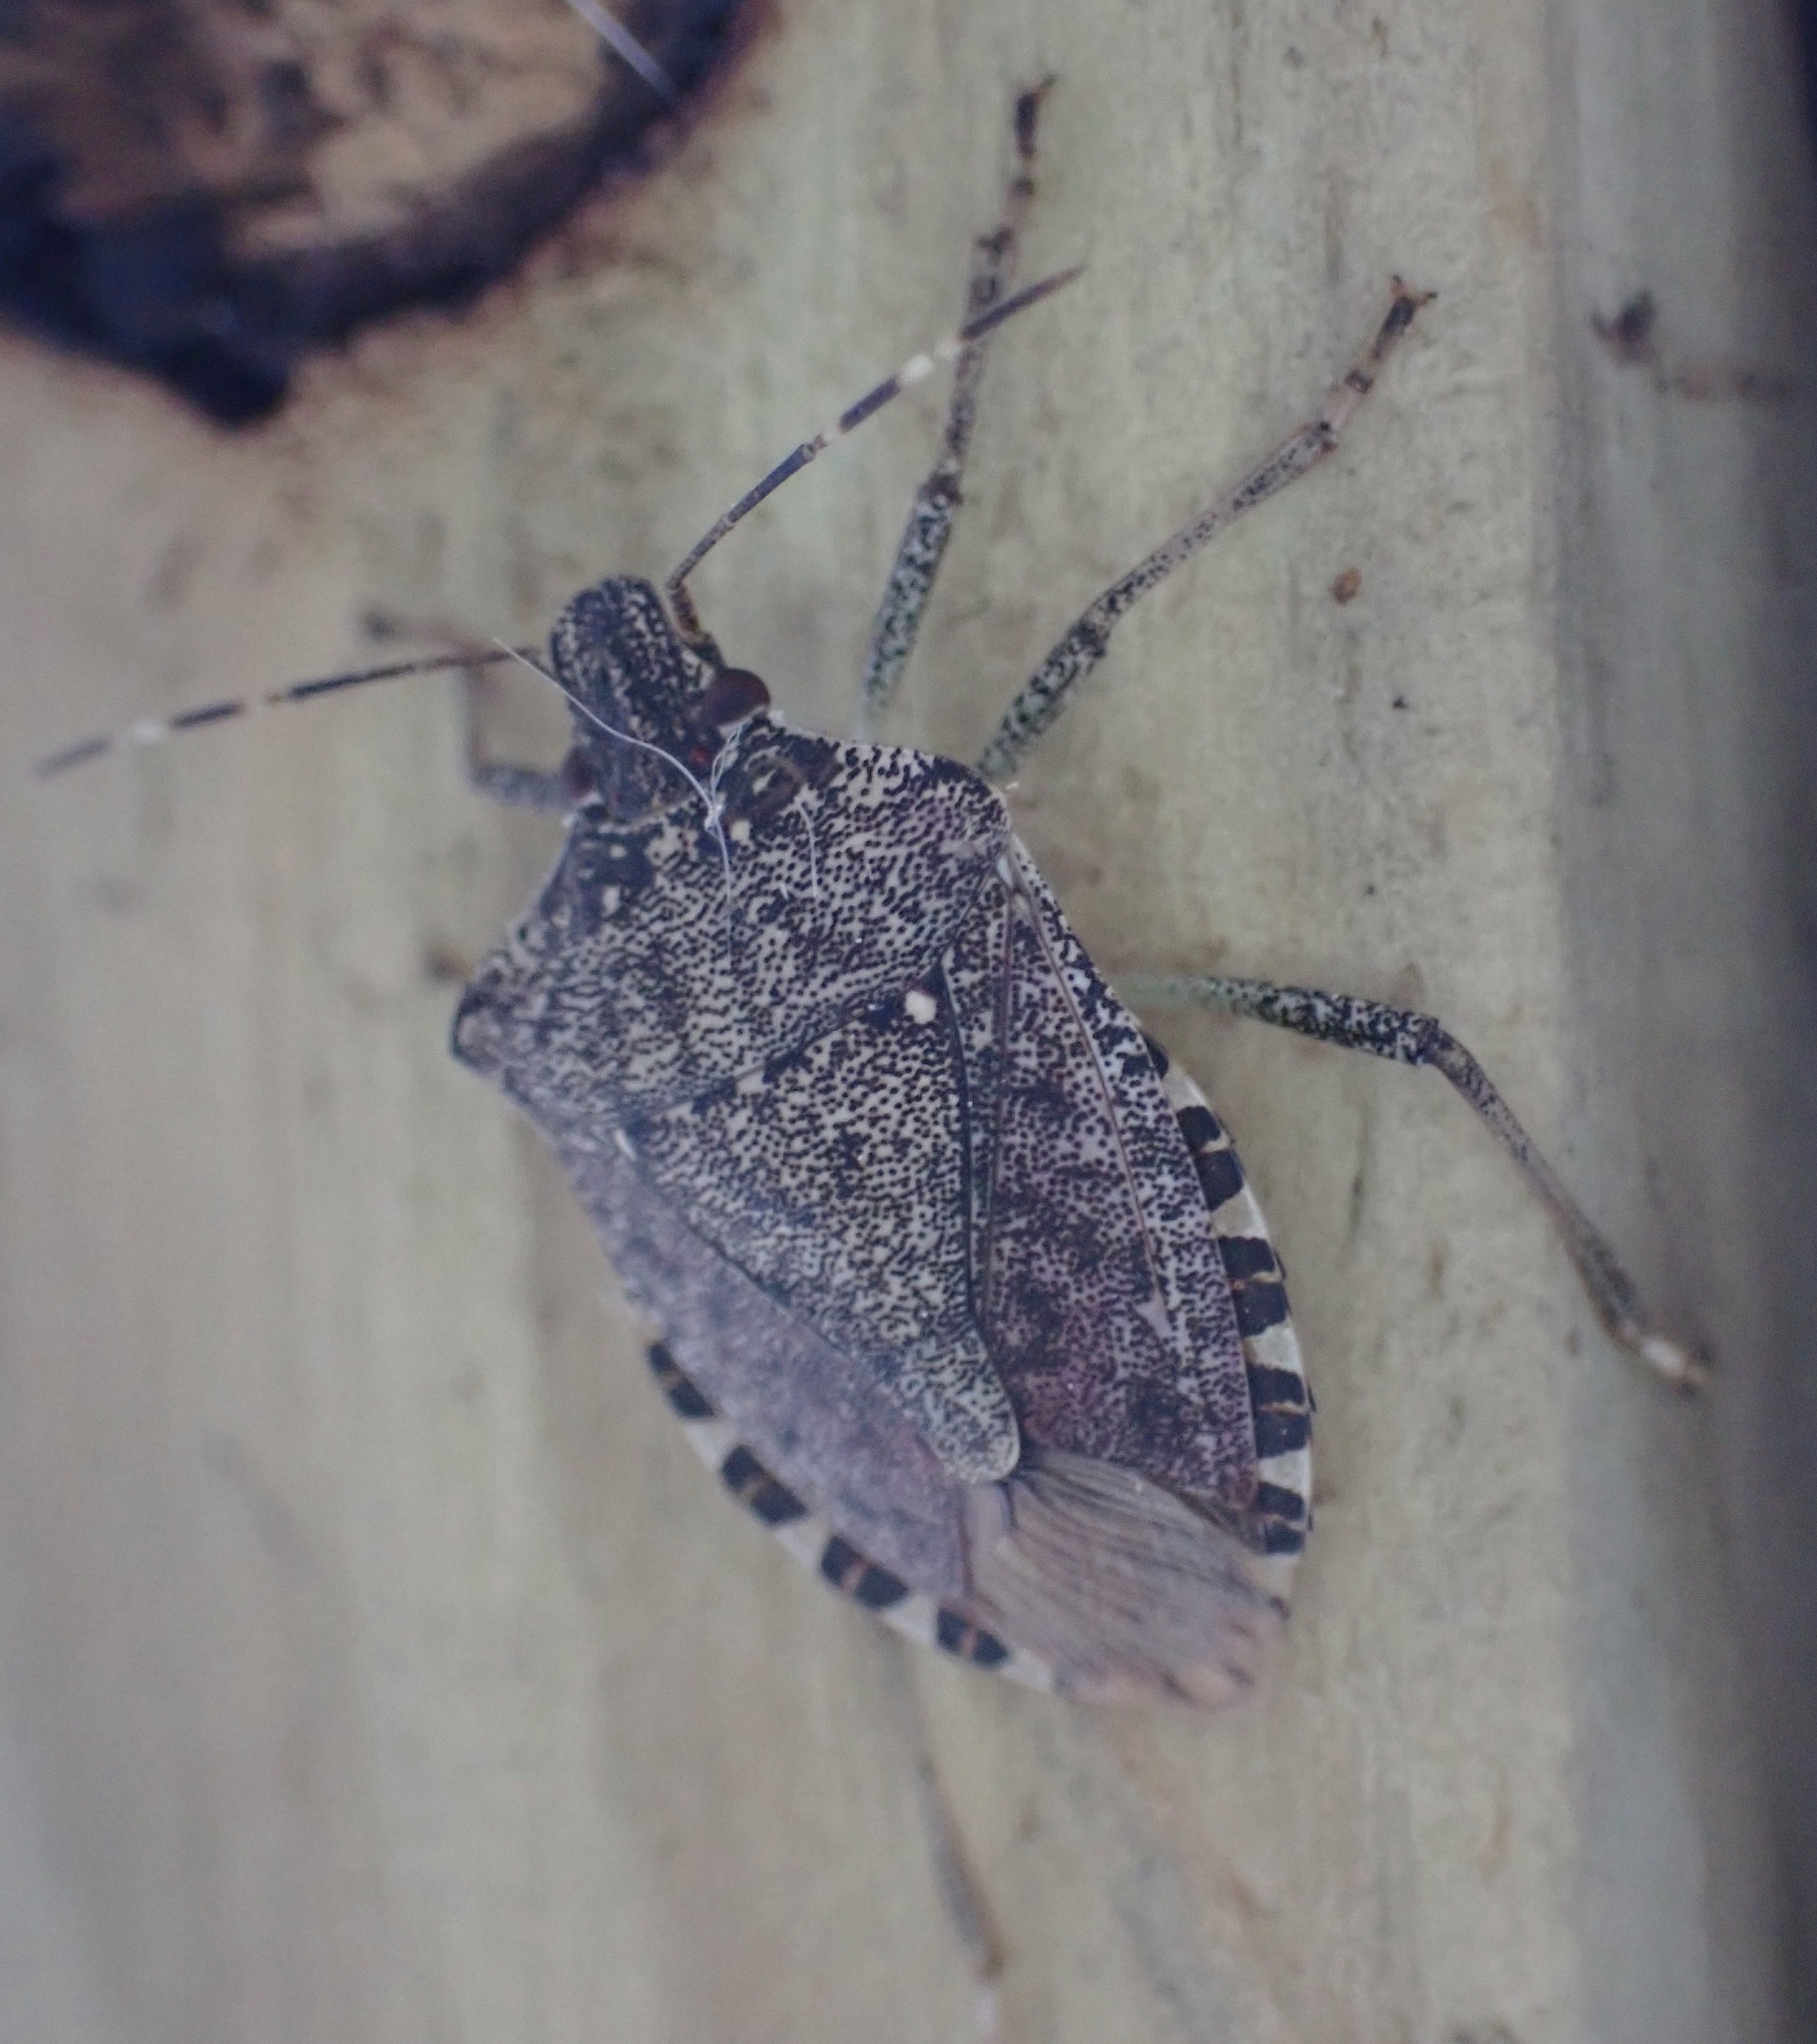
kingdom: Animalia
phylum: Arthropoda
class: Insecta
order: Hemiptera
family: Pentatomidae
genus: Halyomorpha
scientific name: Halyomorpha halys
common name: Brown marmorated stink bug
